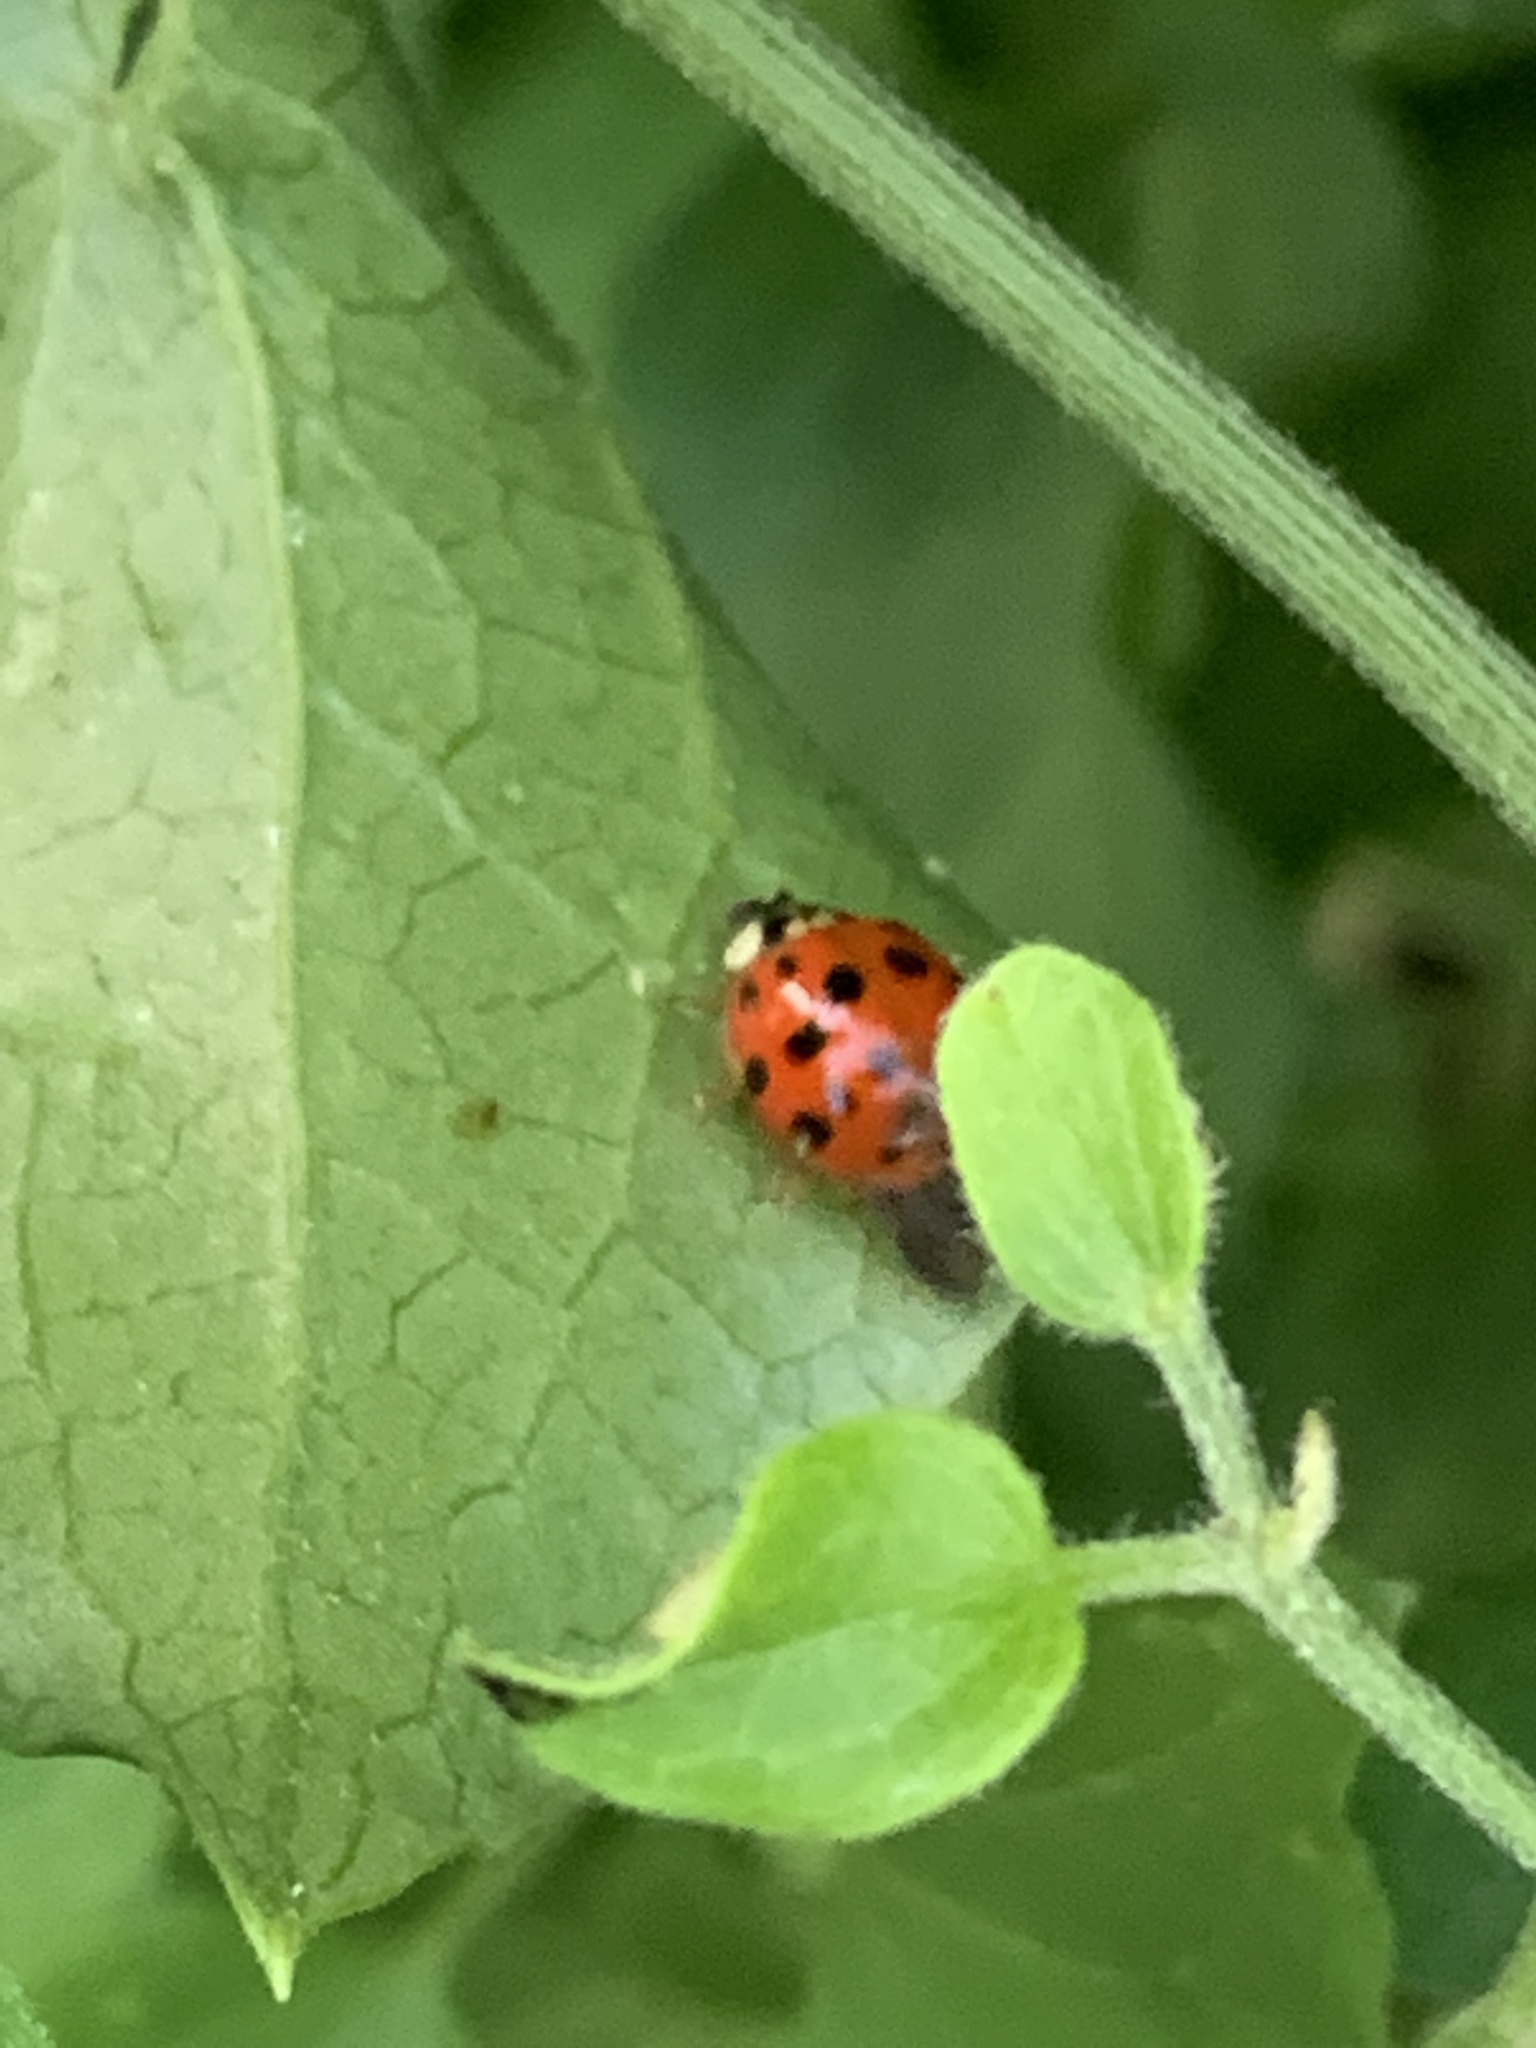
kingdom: Animalia
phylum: Arthropoda
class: Insecta
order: Coleoptera
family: Coccinellidae
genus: Harmonia
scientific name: Harmonia axyridis
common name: Harlequin ladybird
